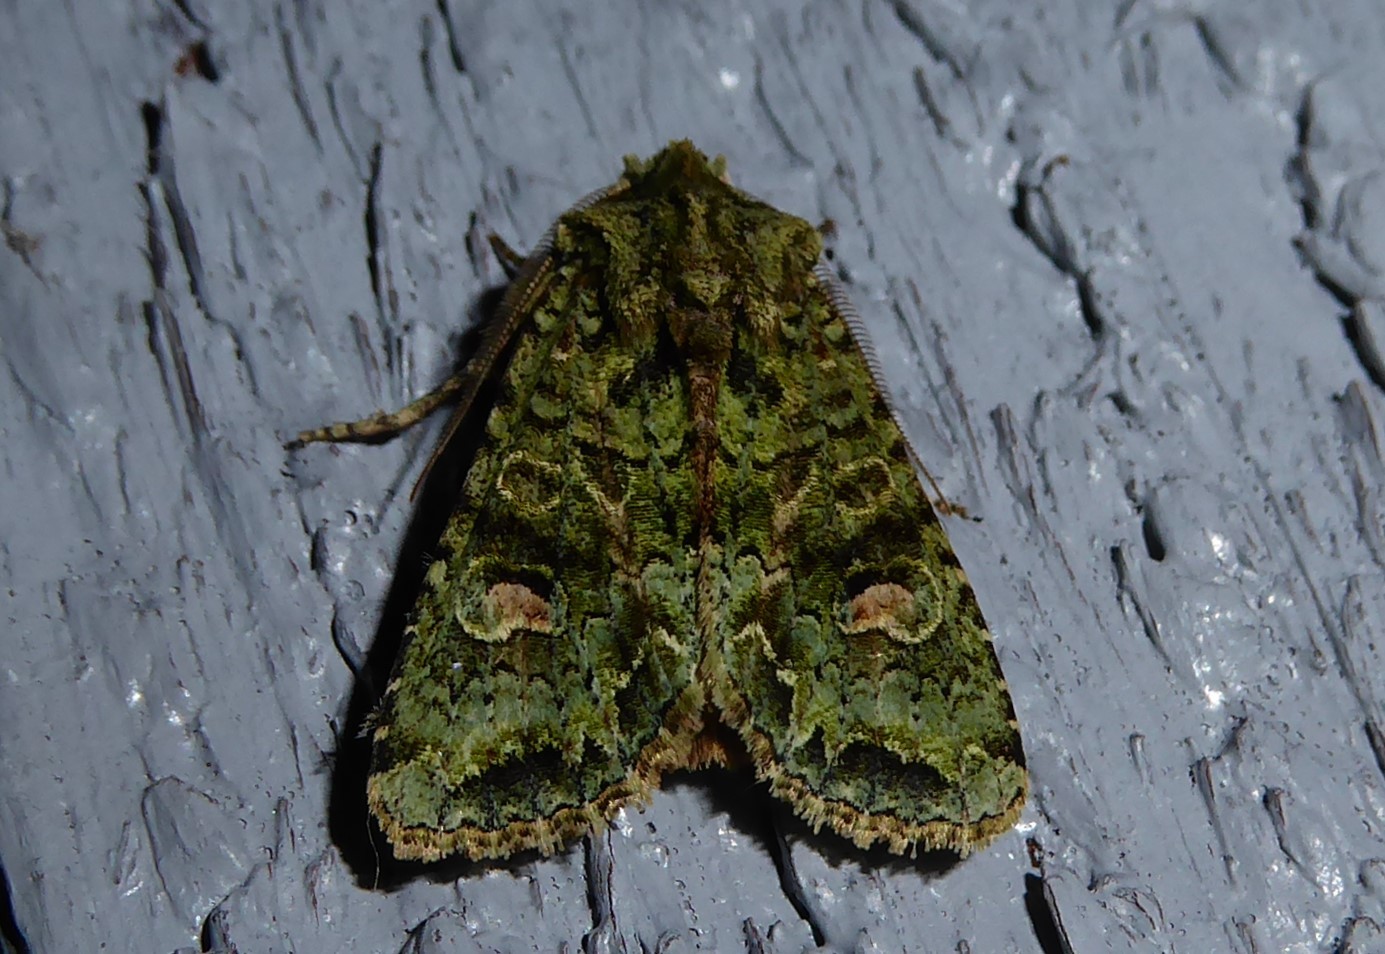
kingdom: Animalia
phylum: Arthropoda
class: Insecta
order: Lepidoptera
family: Noctuidae
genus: Ichneutica
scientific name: Ichneutica
